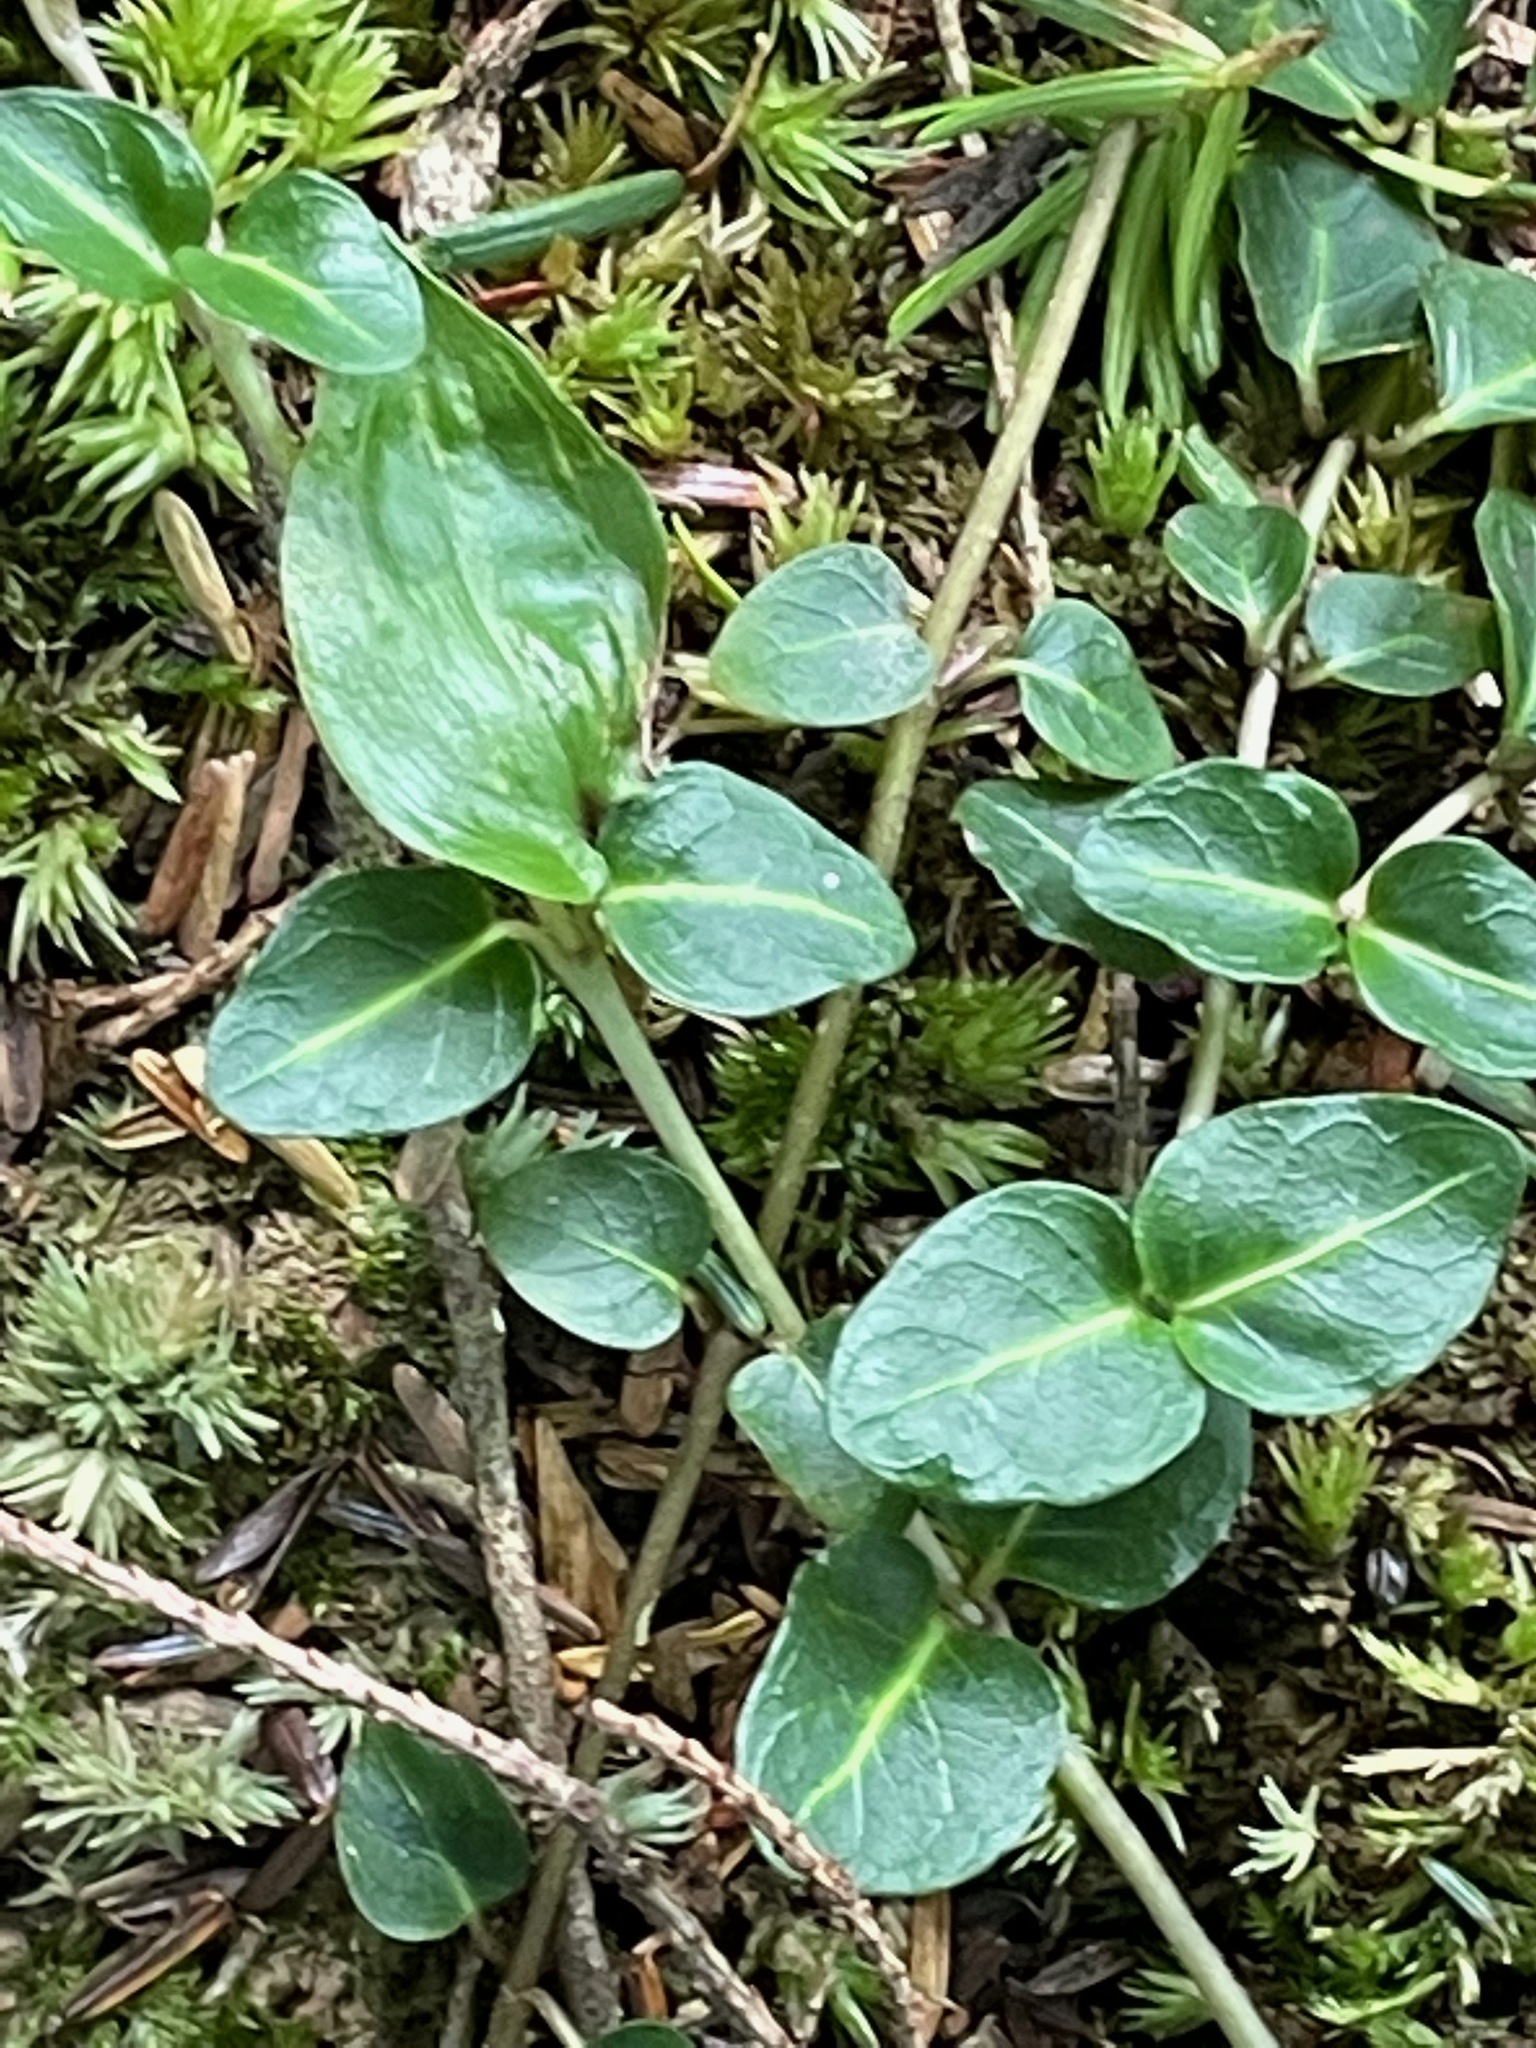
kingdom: Plantae
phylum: Tracheophyta
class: Magnoliopsida
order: Gentianales
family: Rubiaceae
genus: Mitchella
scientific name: Mitchella repens
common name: Partridge-berry
